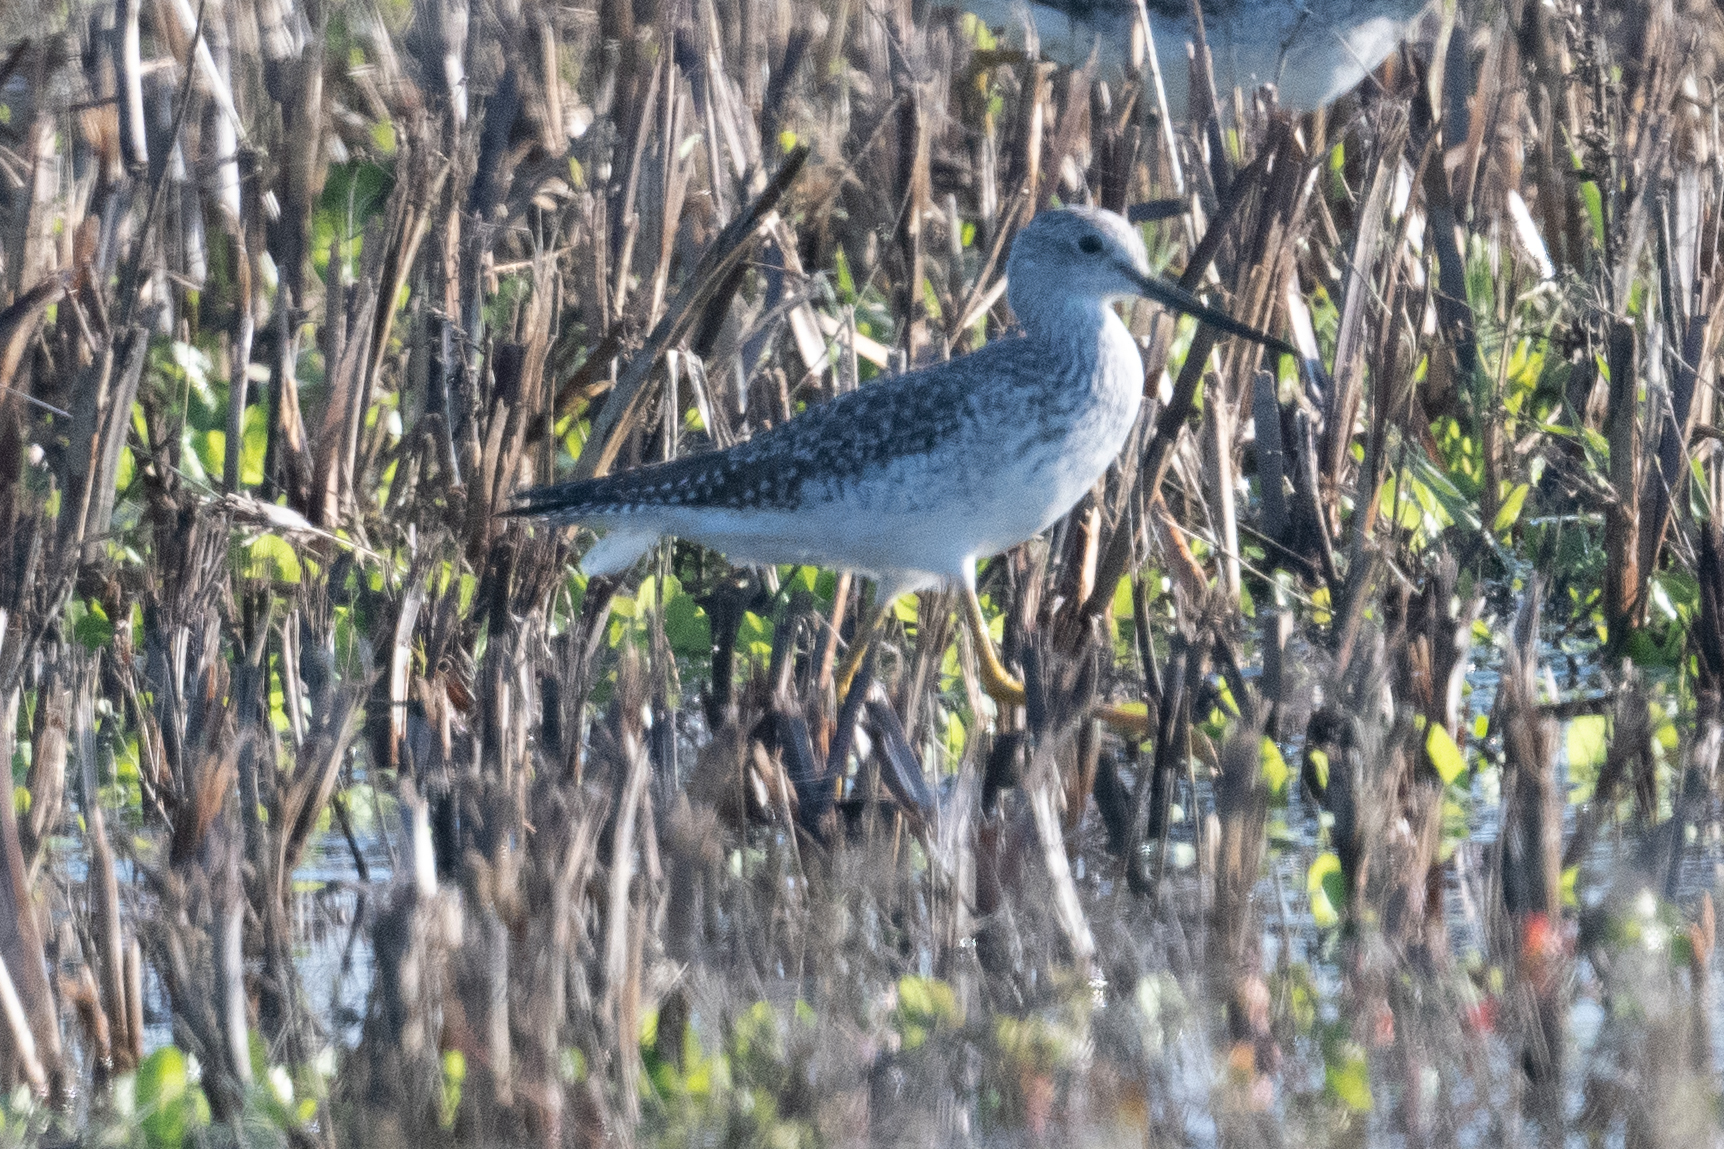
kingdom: Animalia
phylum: Chordata
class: Aves
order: Charadriiformes
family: Scolopacidae
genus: Tringa
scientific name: Tringa melanoleuca
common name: Greater yellowlegs
